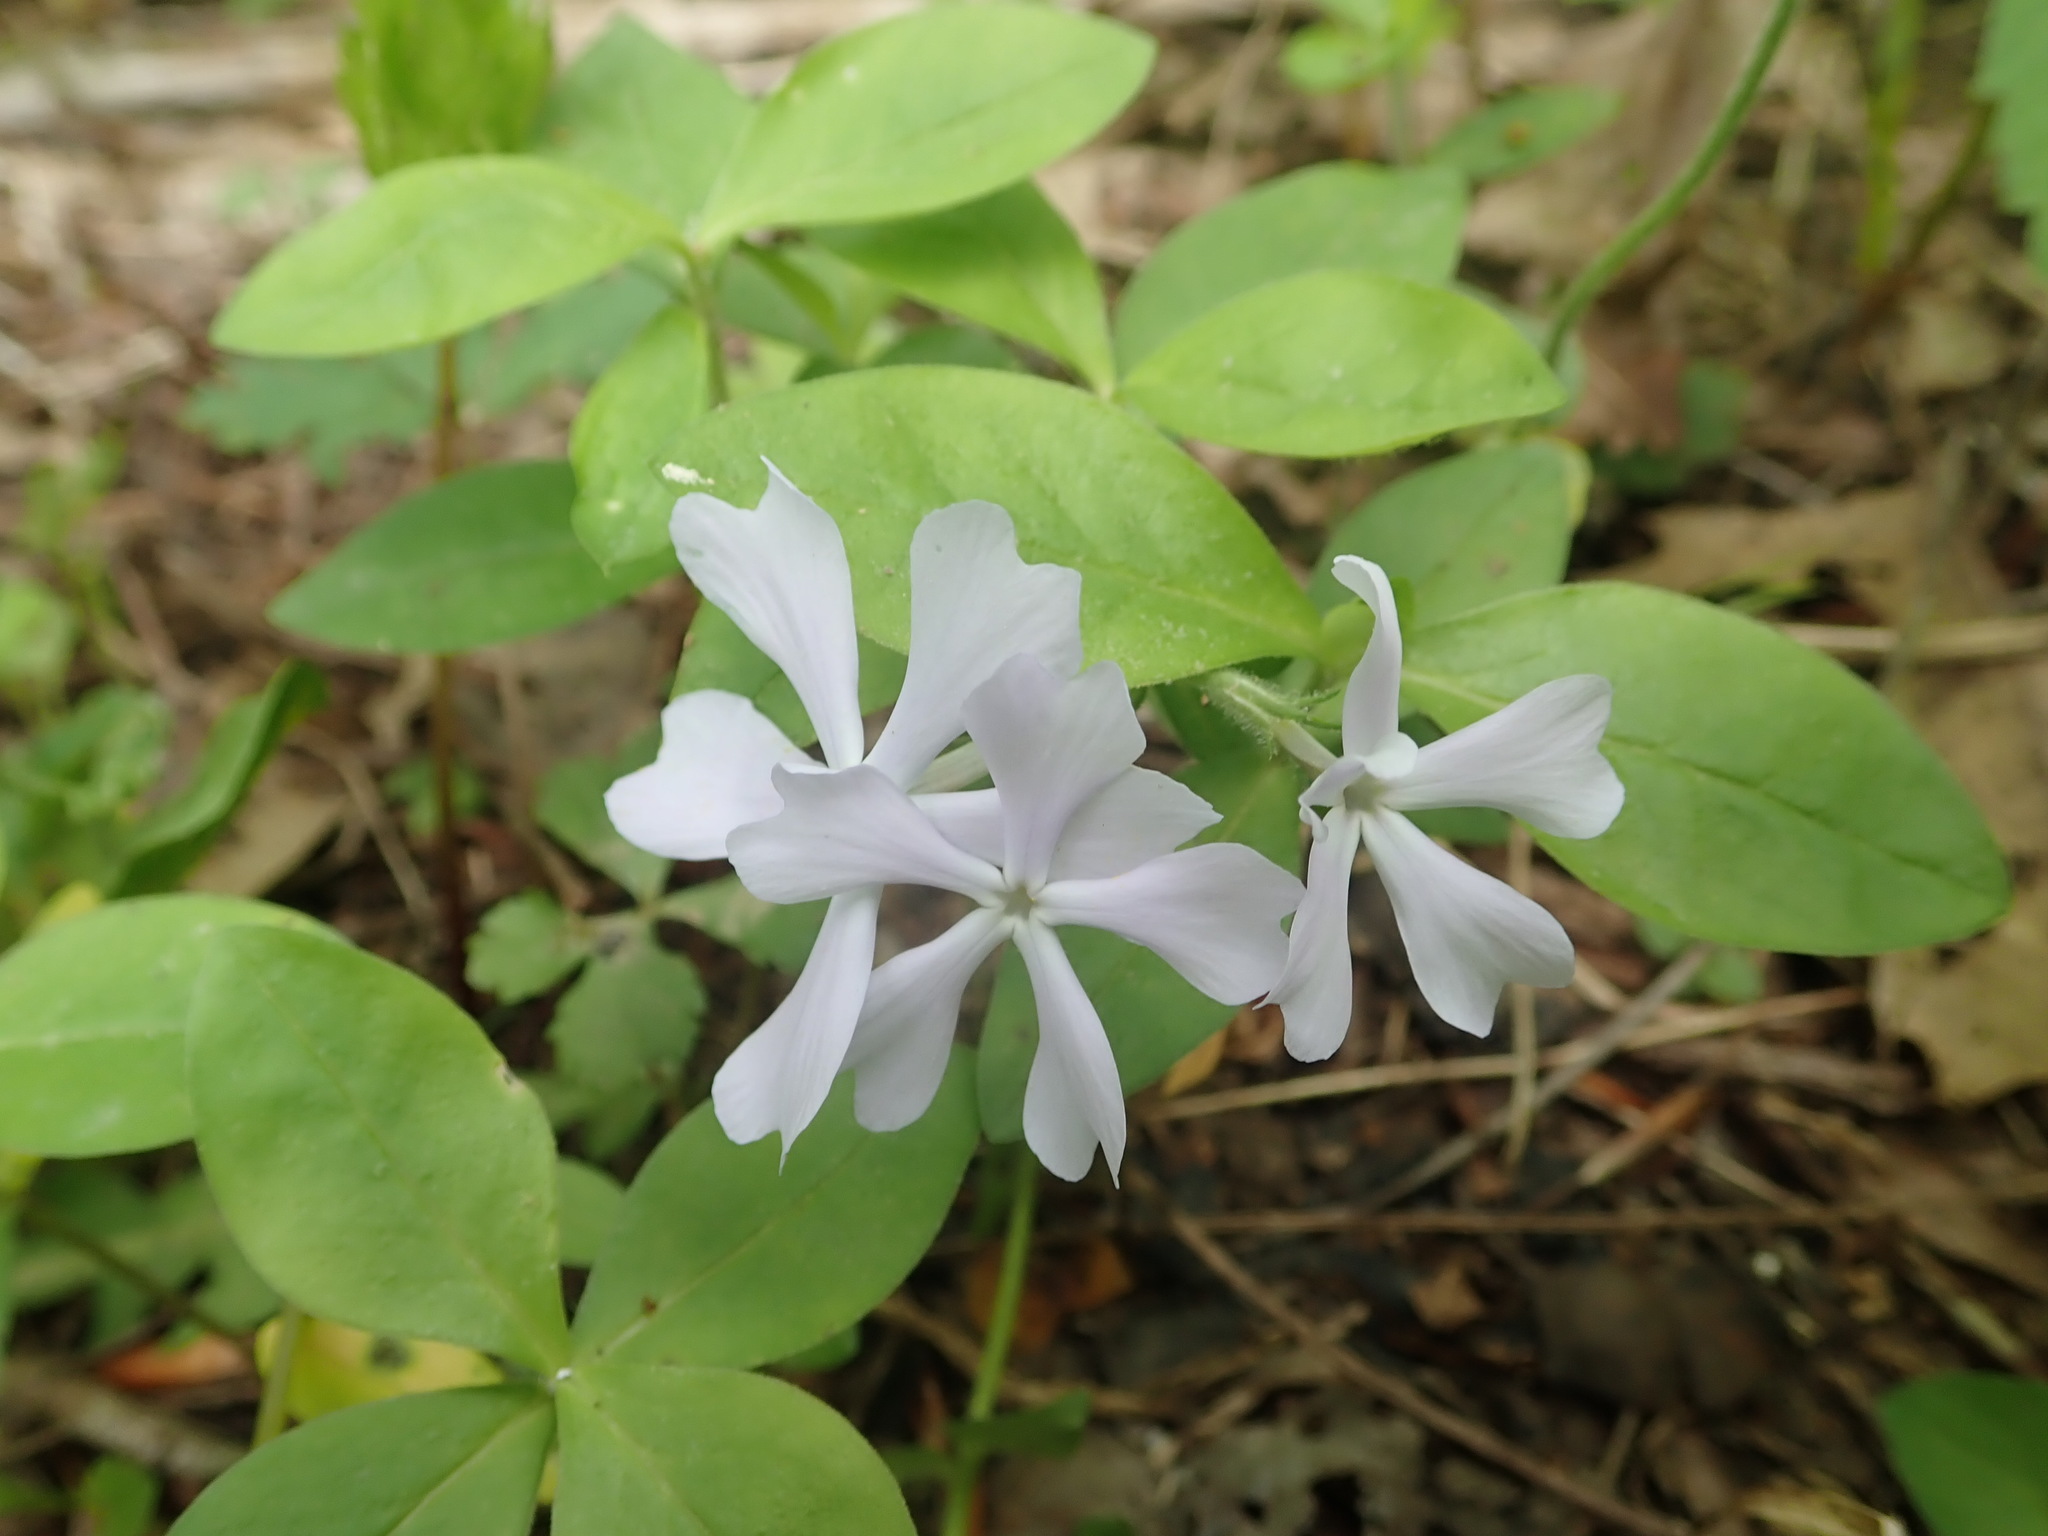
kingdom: Plantae
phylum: Tracheophyta
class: Magnoliopsida
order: Ericales
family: Polemoniaceae
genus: Phlox
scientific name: Phlox divaricata
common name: Blue phlox
